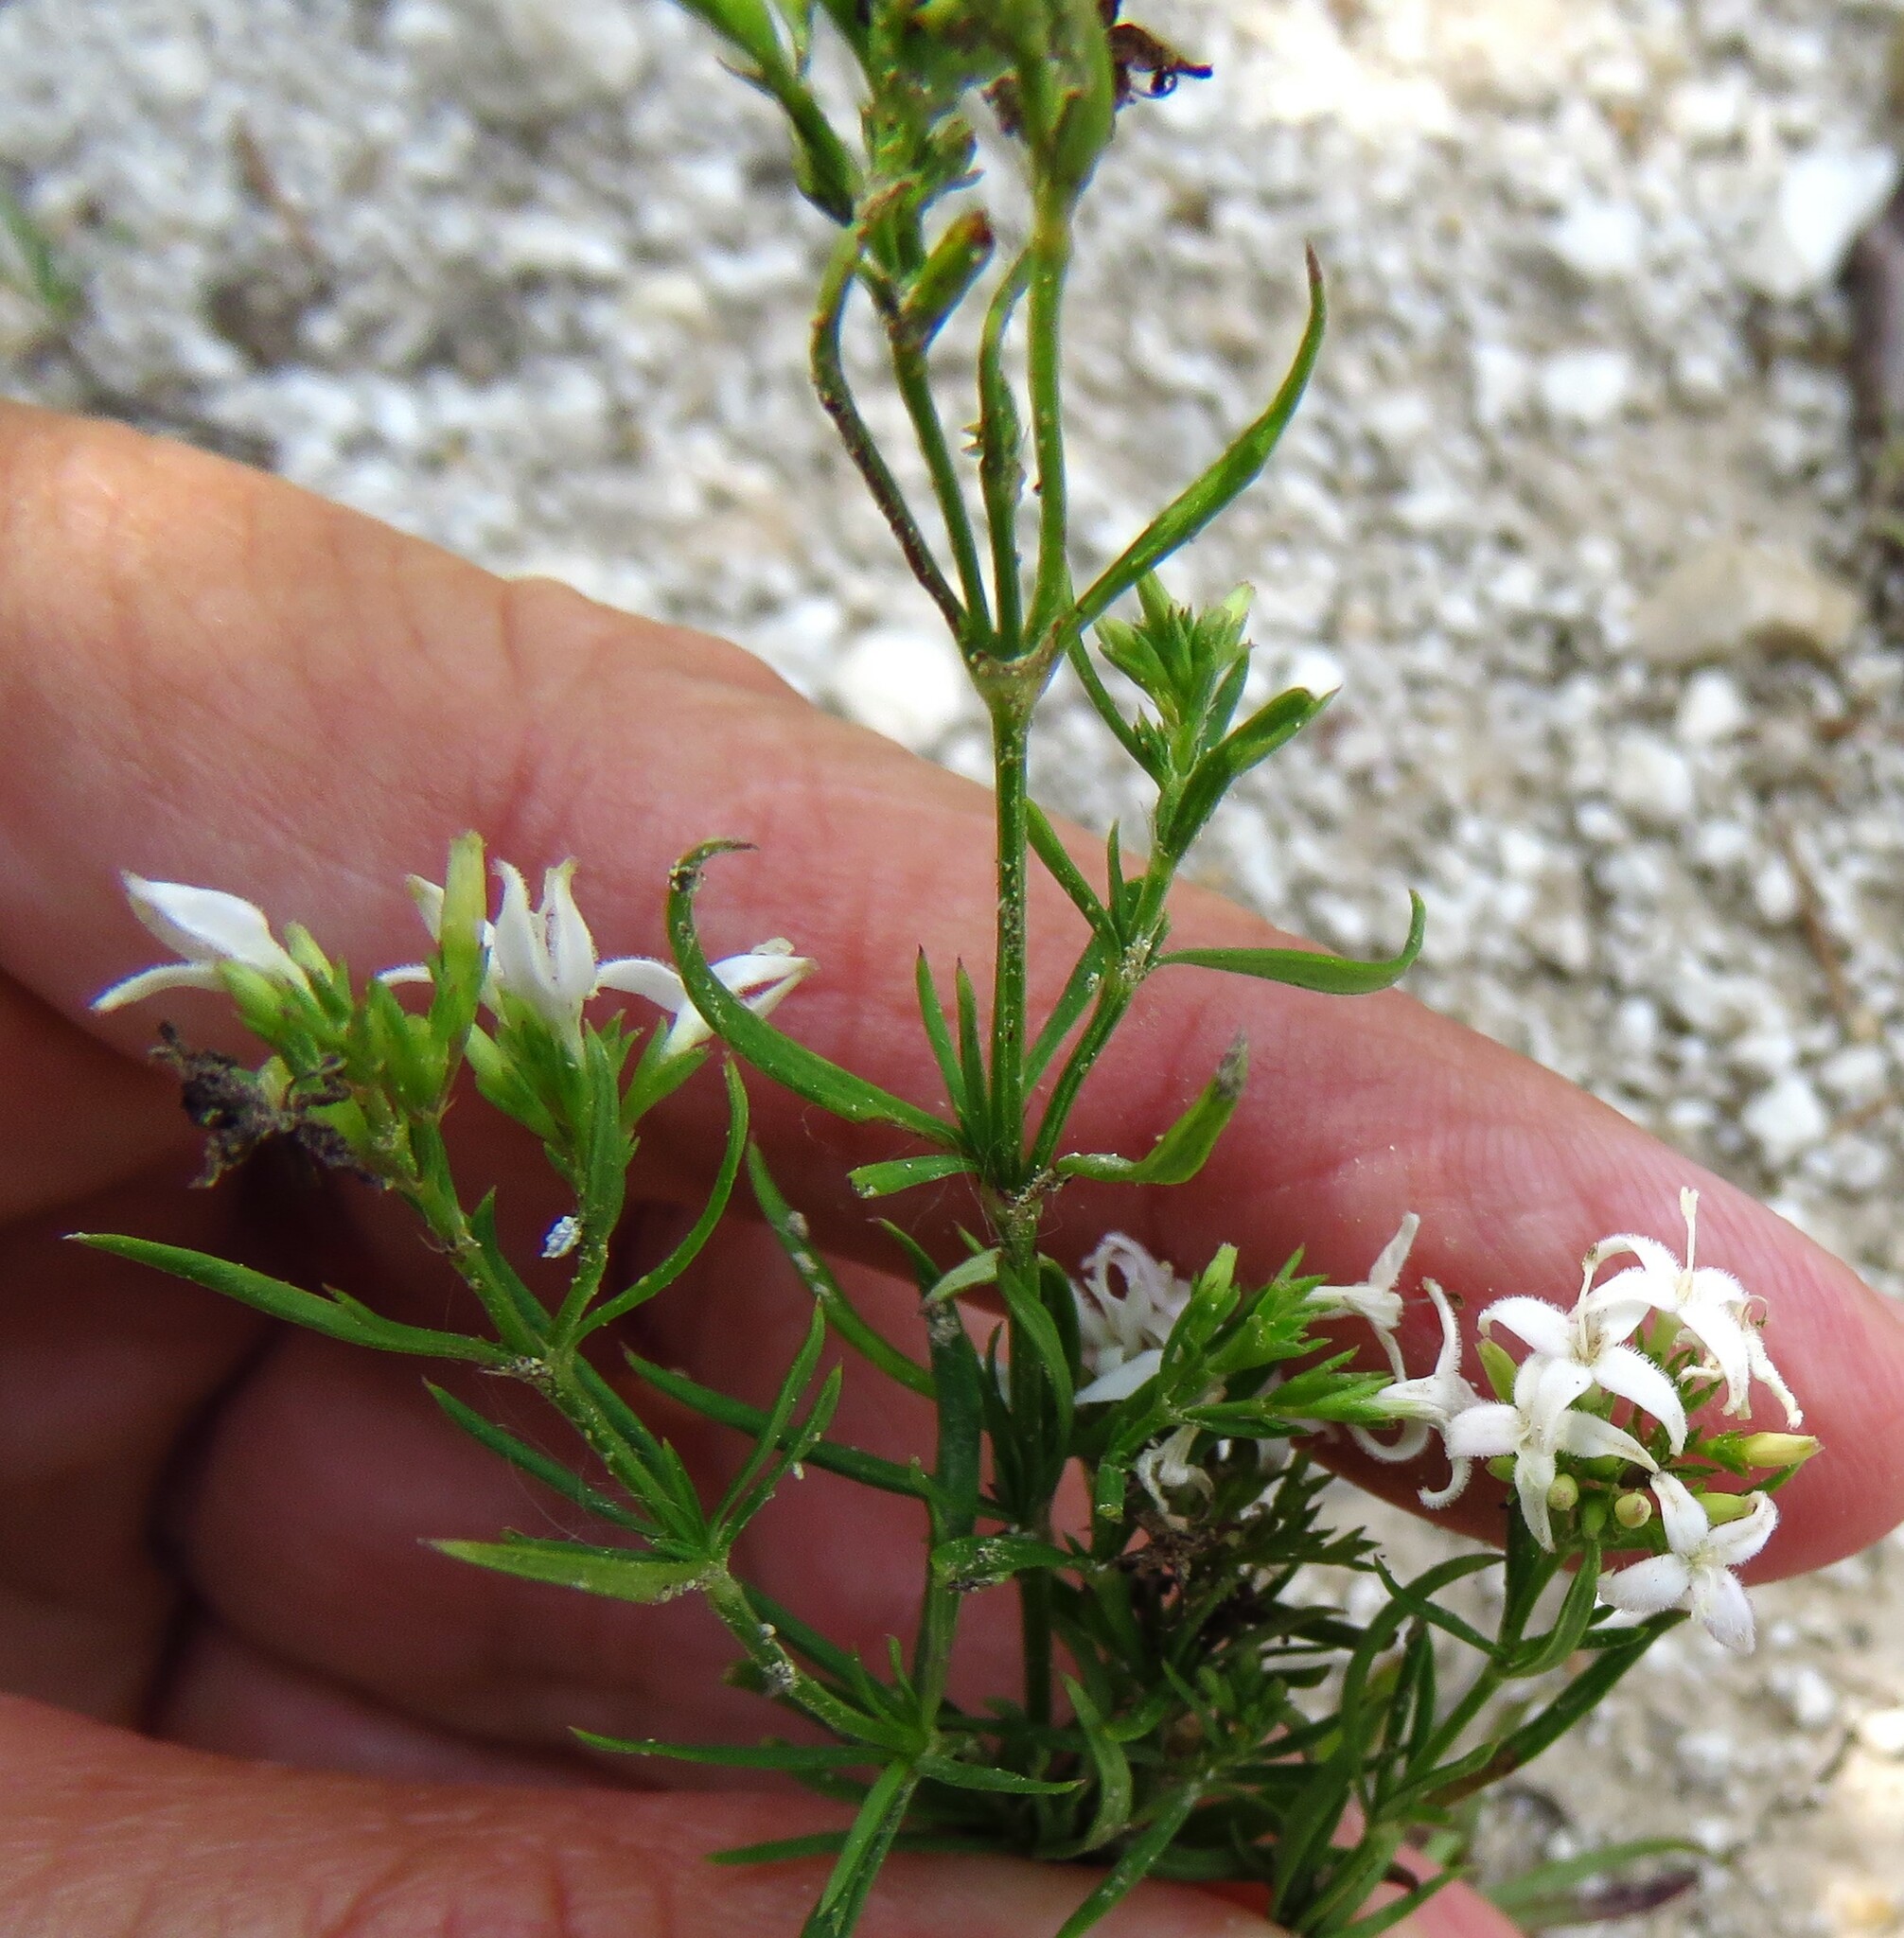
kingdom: Plantae
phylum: Tracheophyta
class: Magnoliopsida
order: Gentianales
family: Rubiaceae
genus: Stenaria
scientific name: Stenaria nigricans
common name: Diamondflowers
